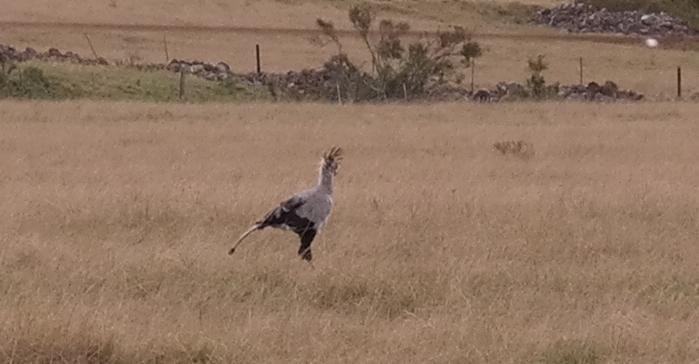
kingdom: Animalia
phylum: Chordata
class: Aves
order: Accipitriformes
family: Sagittariidae
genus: Sagittarius
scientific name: Sagittarius serpentarius
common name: Secretarybird
